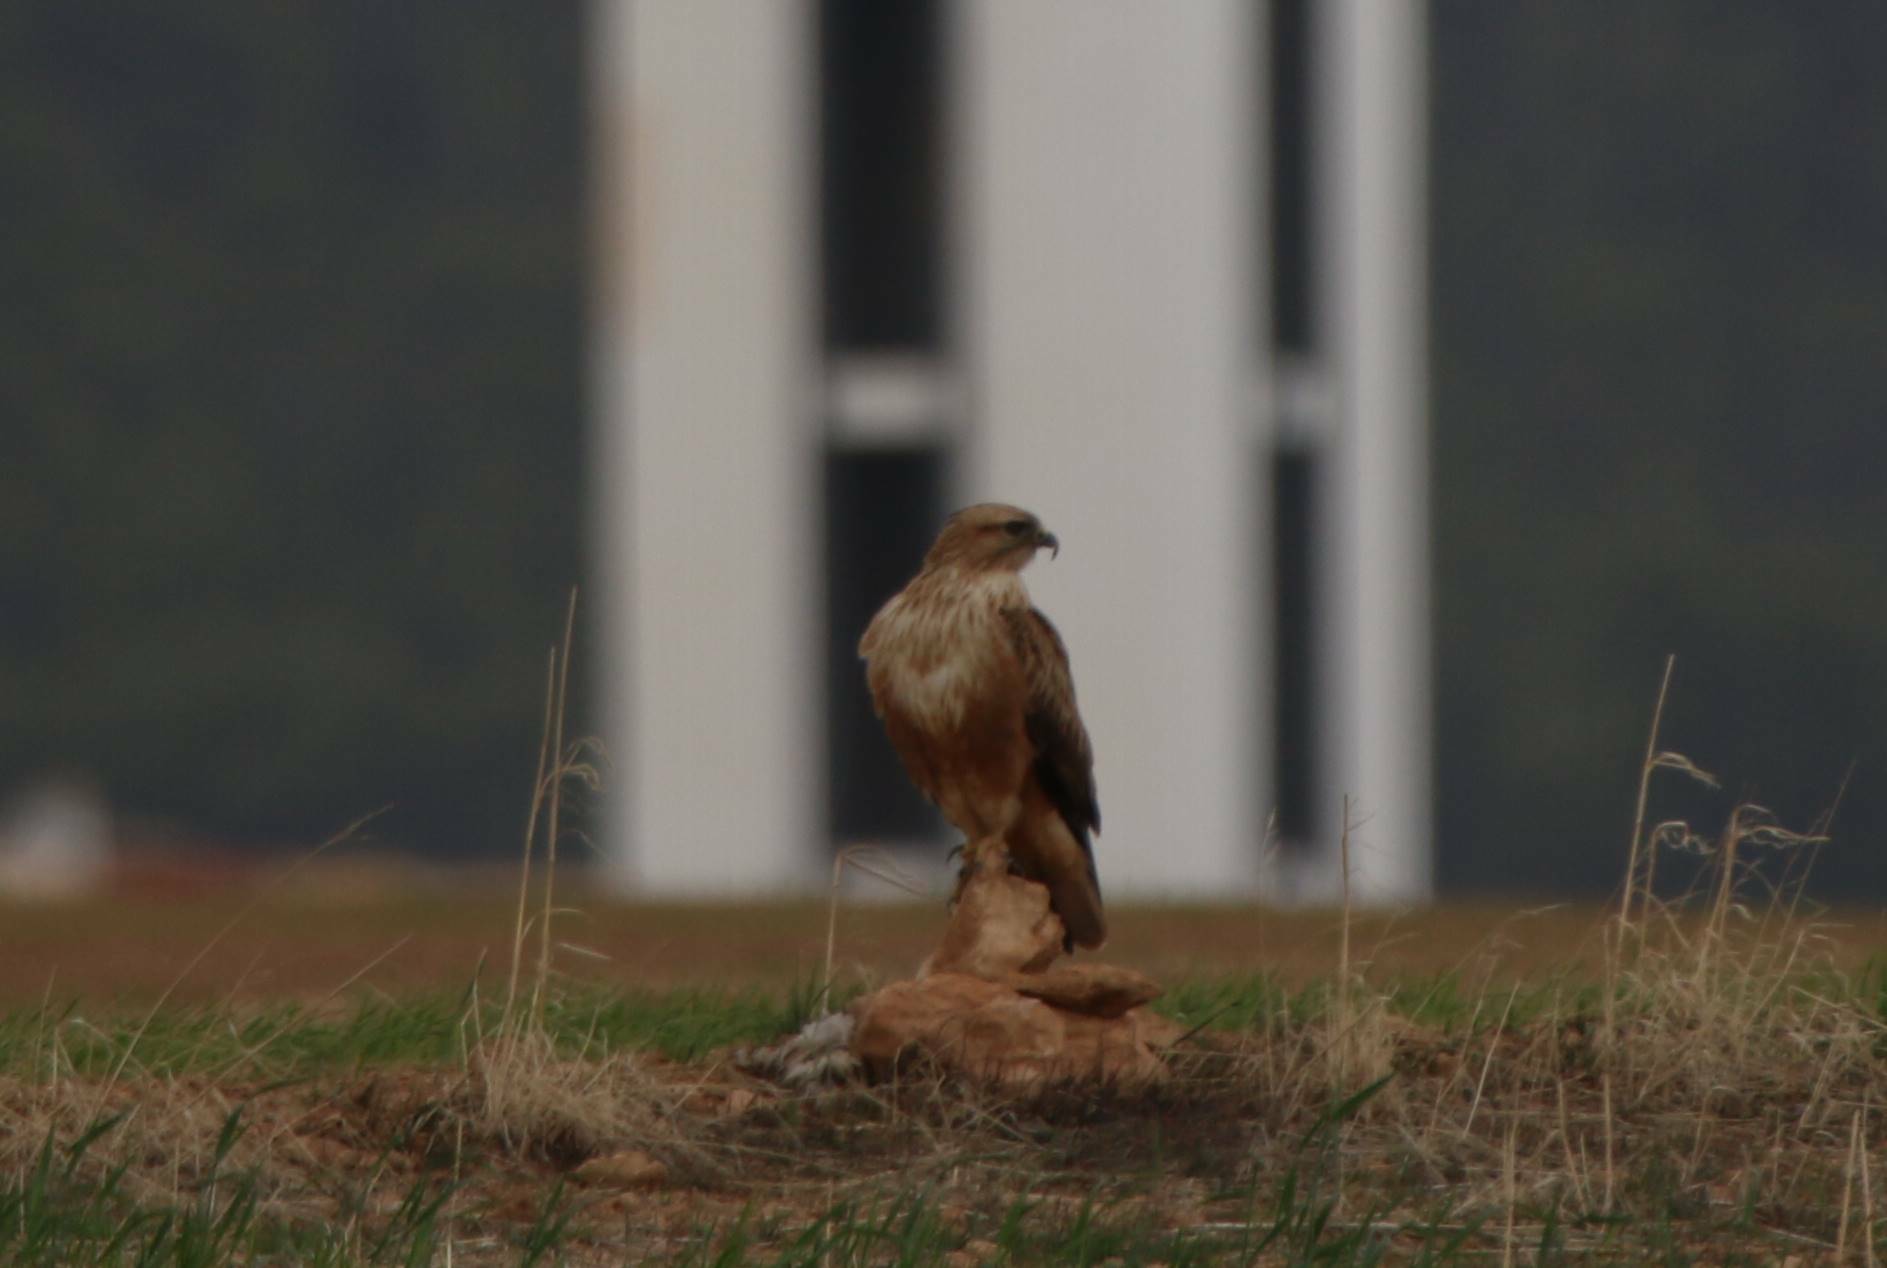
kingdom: Animalia
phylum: Chordata
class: Aves
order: Accipitriformes
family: Accipitridae
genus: Buteo
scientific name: Buteo rufinus
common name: Long-legged buzzard
